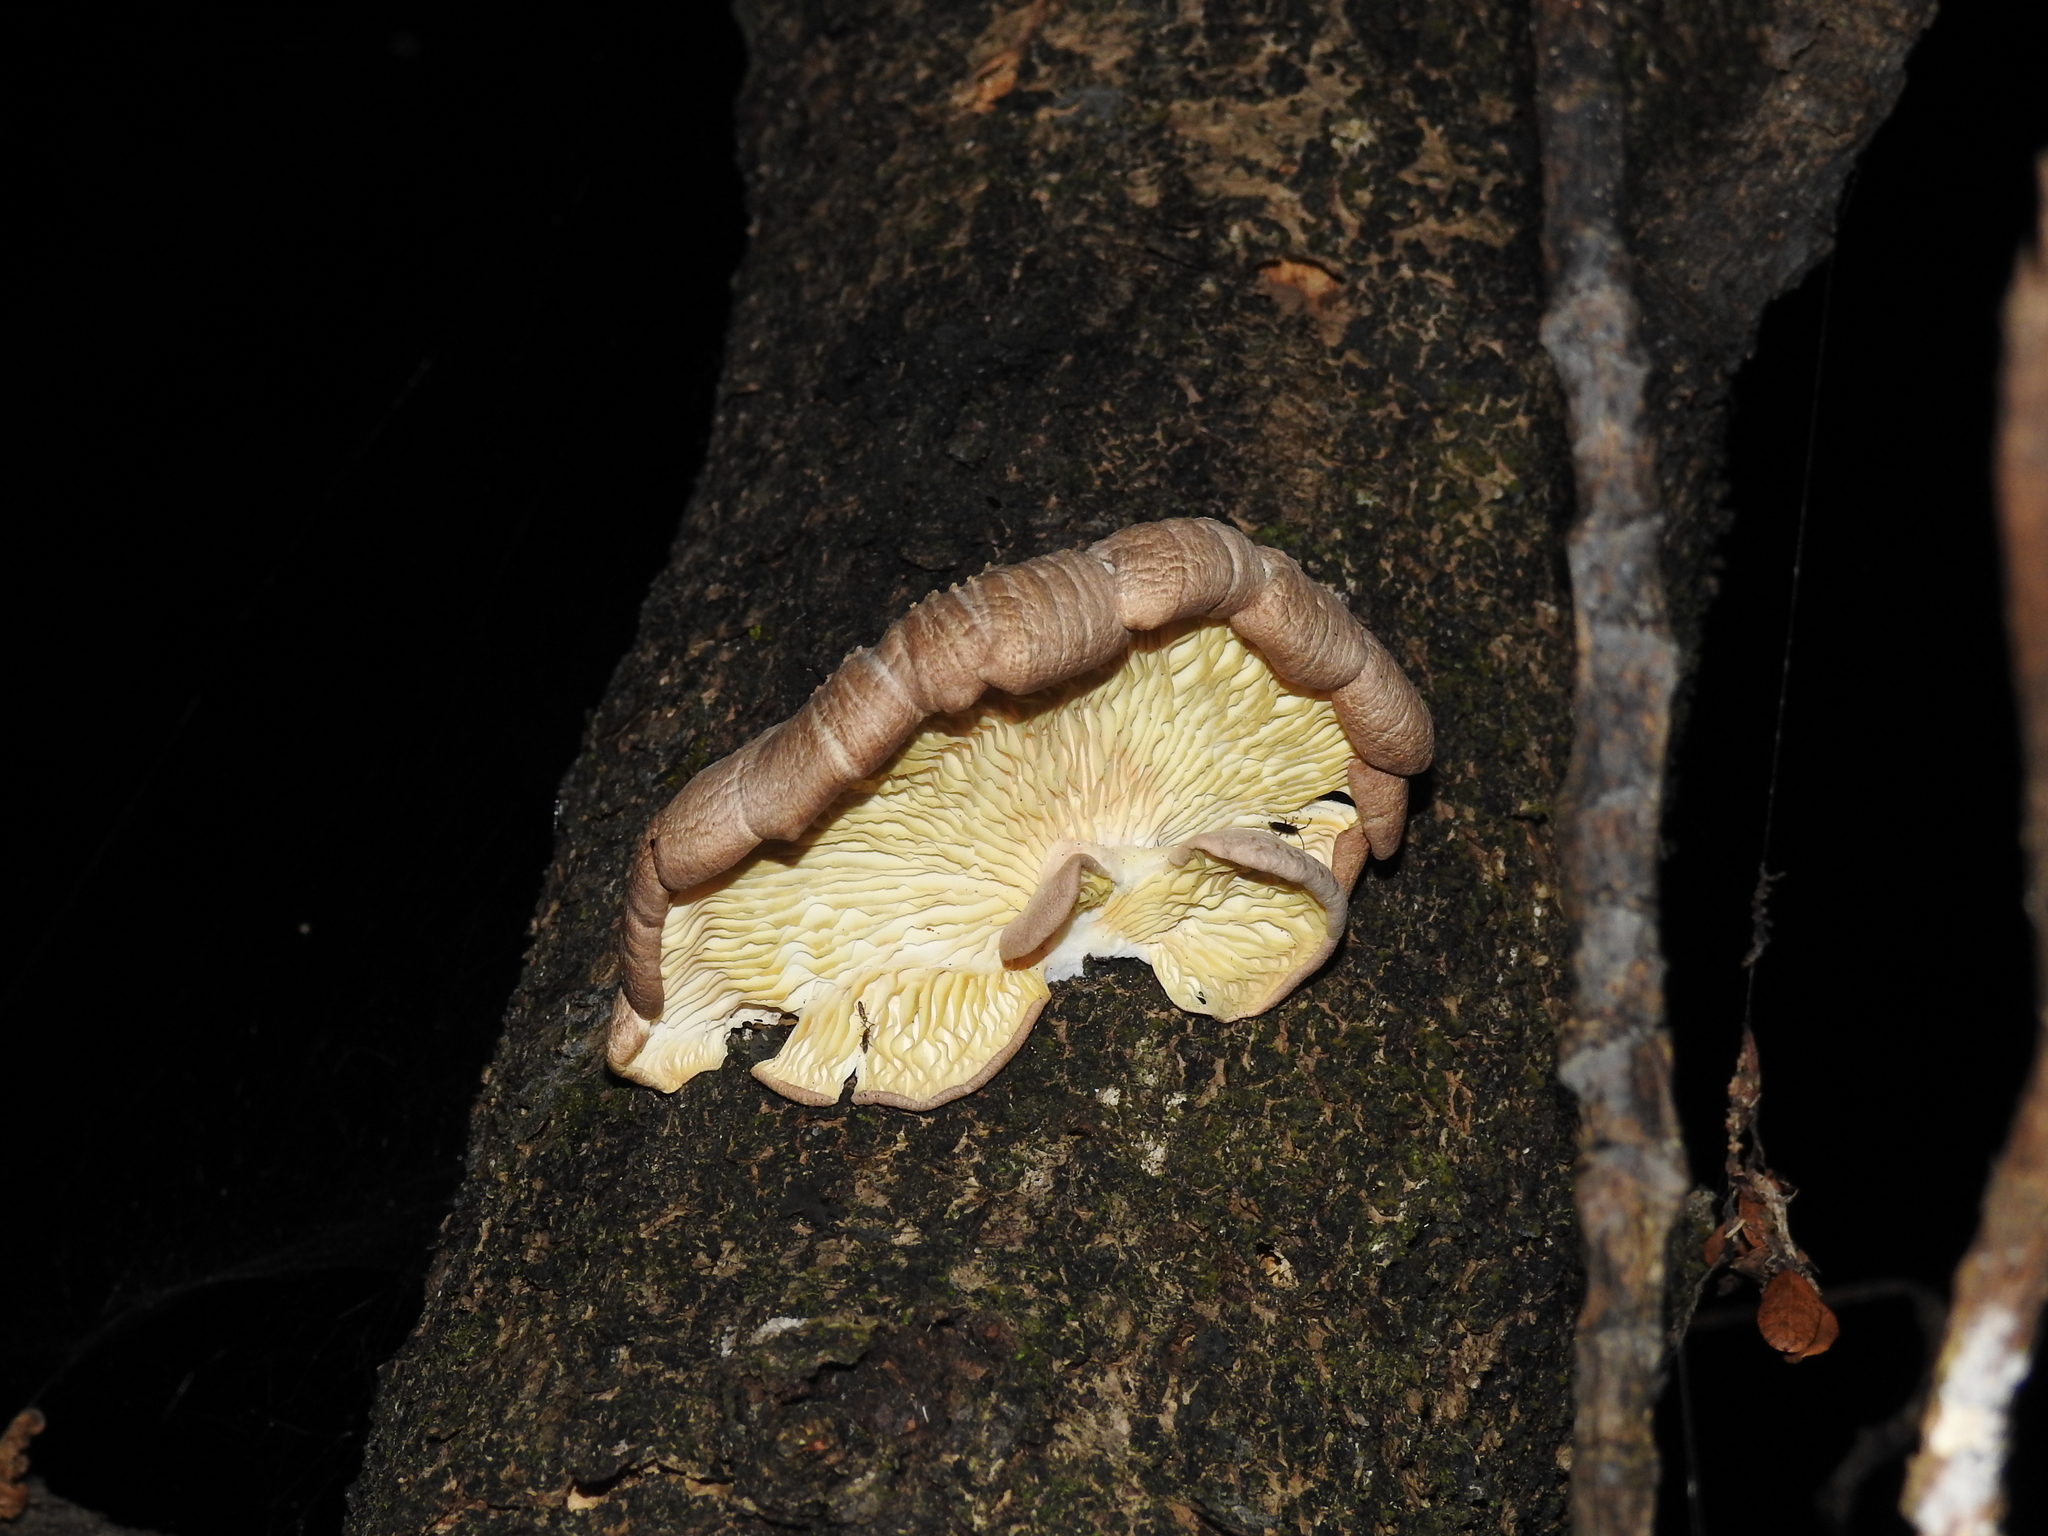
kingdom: Plantae
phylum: Tracheophyta
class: Magnoliopsida
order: Apiales
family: Araliaceae
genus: Neopanax
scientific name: Neopanax arboreus
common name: Five-fingers
